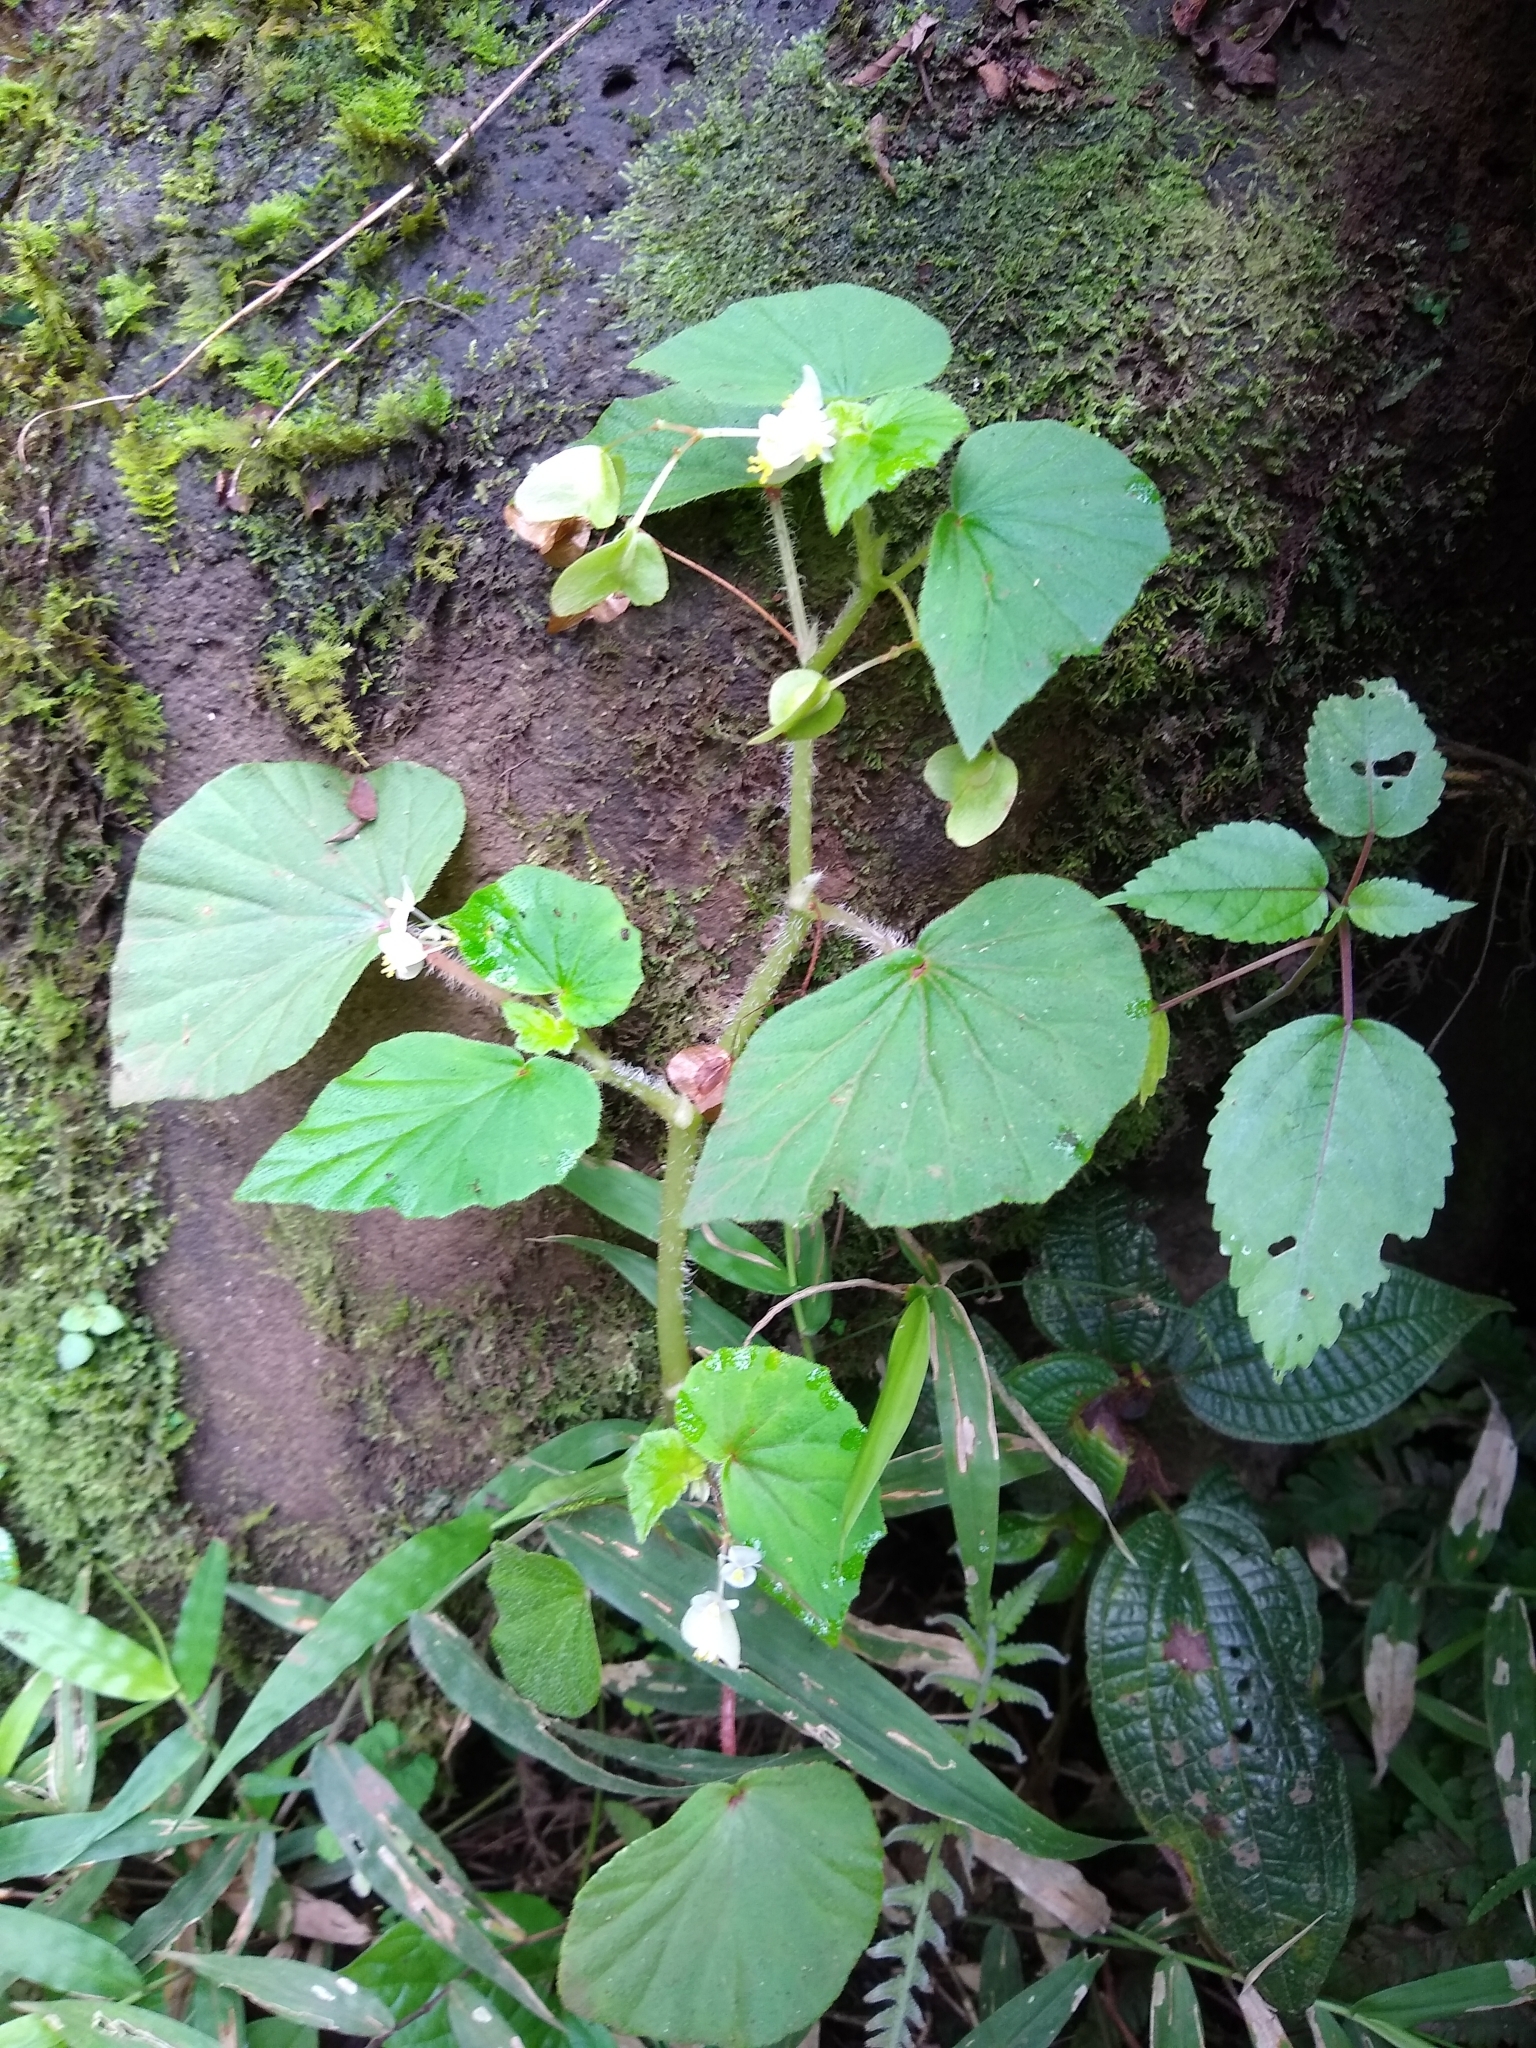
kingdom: Plantae
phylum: Tracheophyta
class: Magnoliopsida
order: Cucurbitales
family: Begoniaceae
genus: Begonia
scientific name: Begonia hirtella
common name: Brazilian begonia
